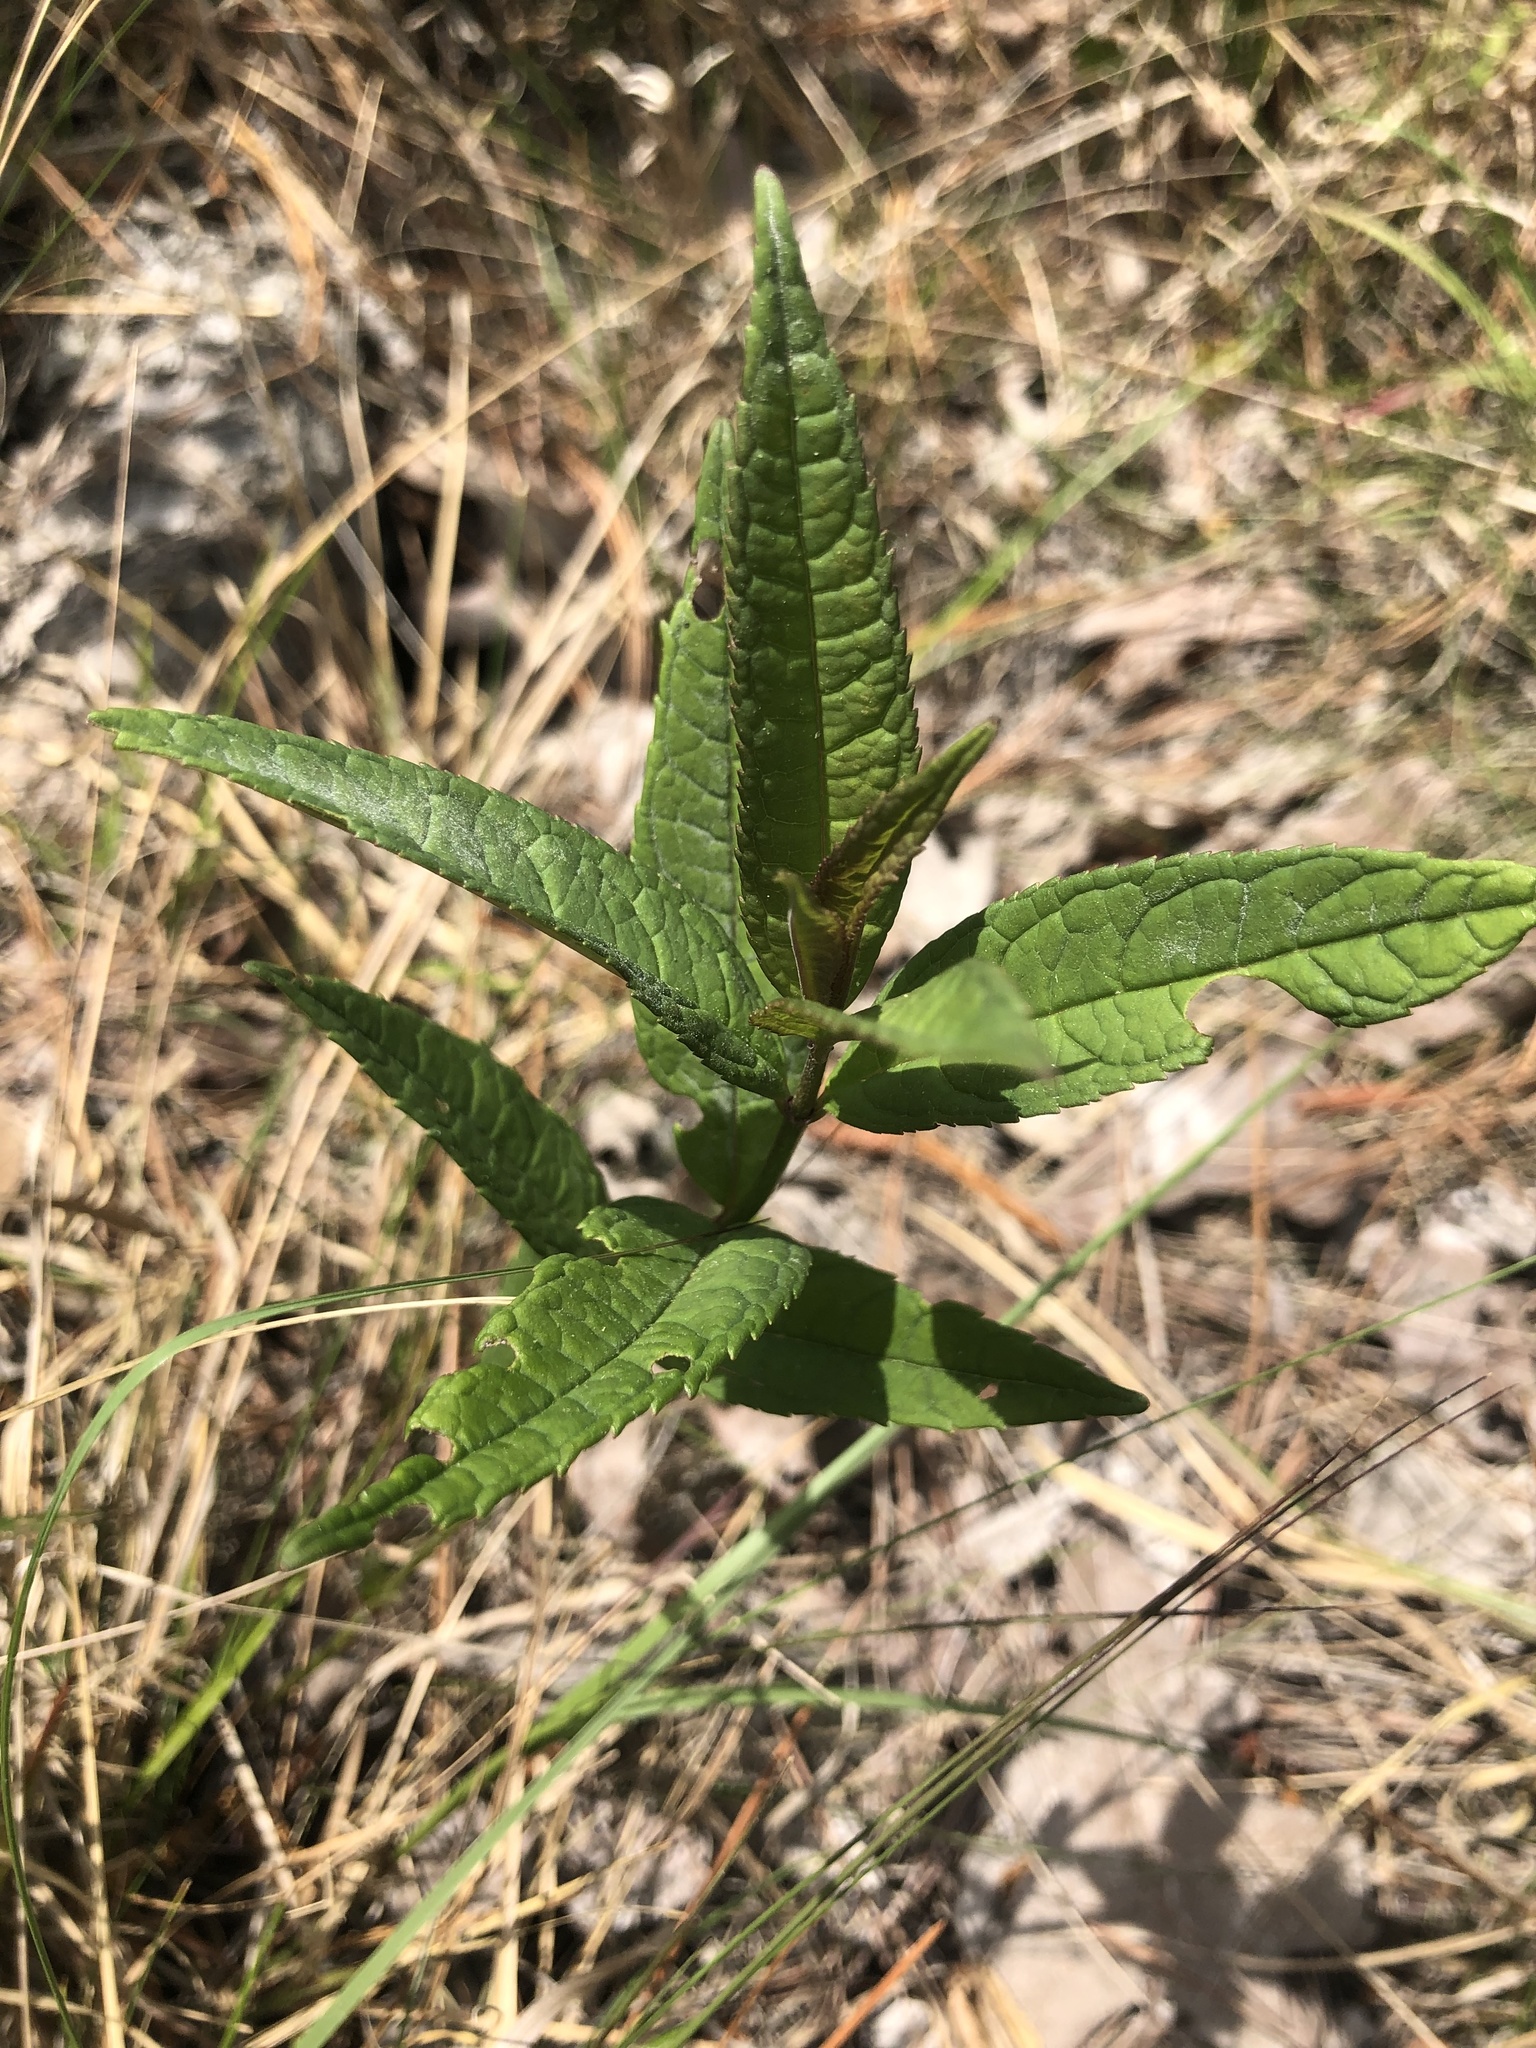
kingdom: Plantae
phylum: Tracheophyta
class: Magnoliopsida
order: Lamiales
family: Plantaginaceae
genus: Chelone
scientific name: Chelone glabra
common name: Snakehead
